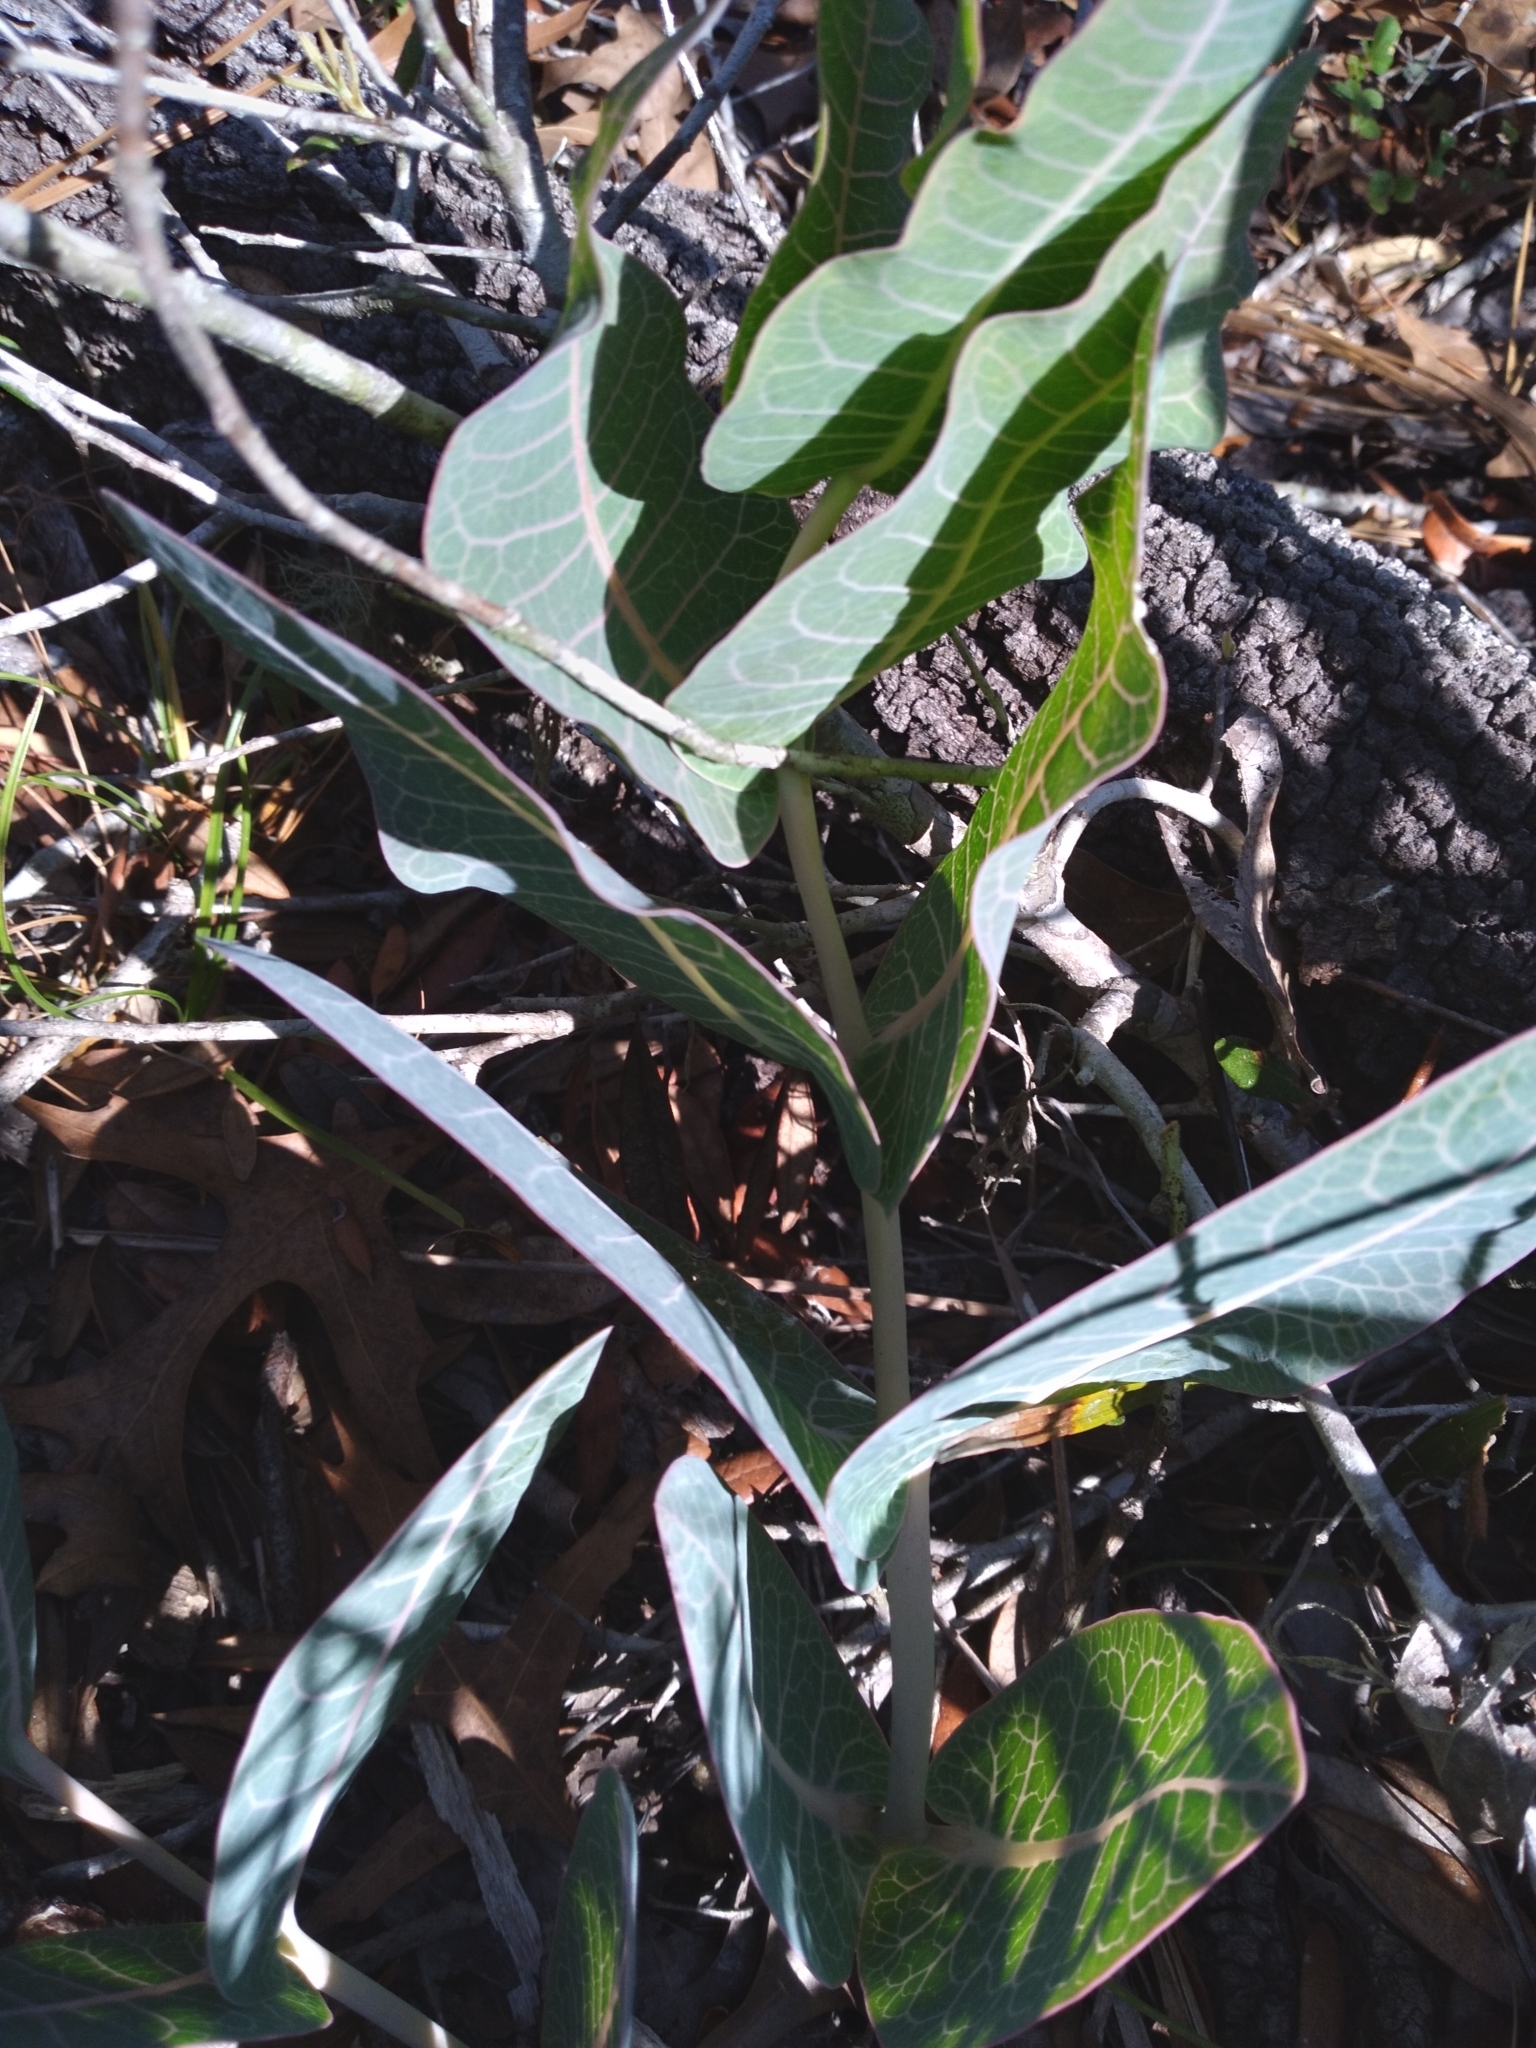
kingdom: Plantae
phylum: Tracheophyta
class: Magnoliopsida
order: Gentianales
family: Apocynaceae
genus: Asclepias
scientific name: Asclepias humistrata
